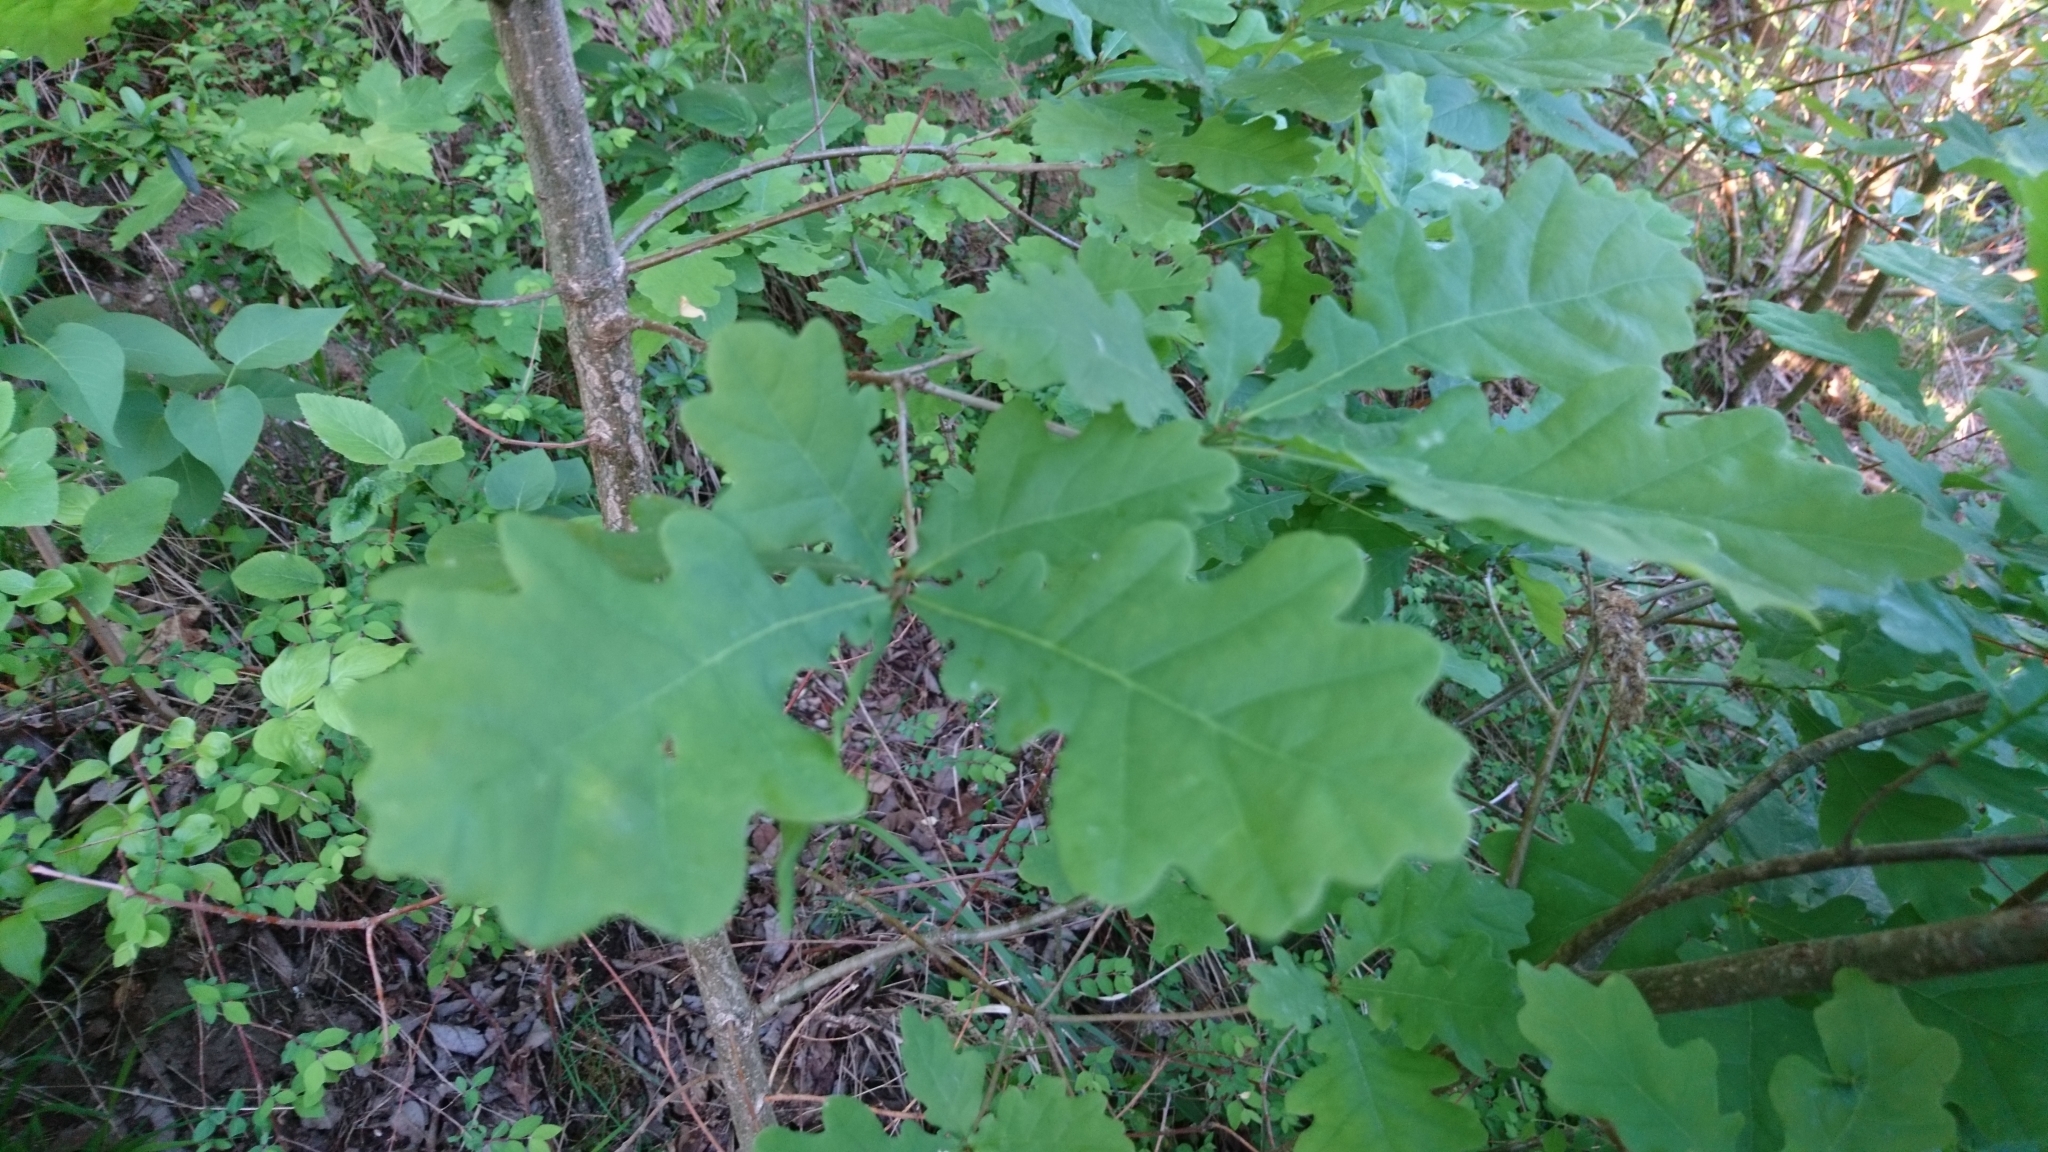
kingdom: Plantae
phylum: Tracheophyta
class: Magnoliopsida
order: Fagales
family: Fagaceae
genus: Quercus
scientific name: Quercus robur
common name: Pedunculate oak
